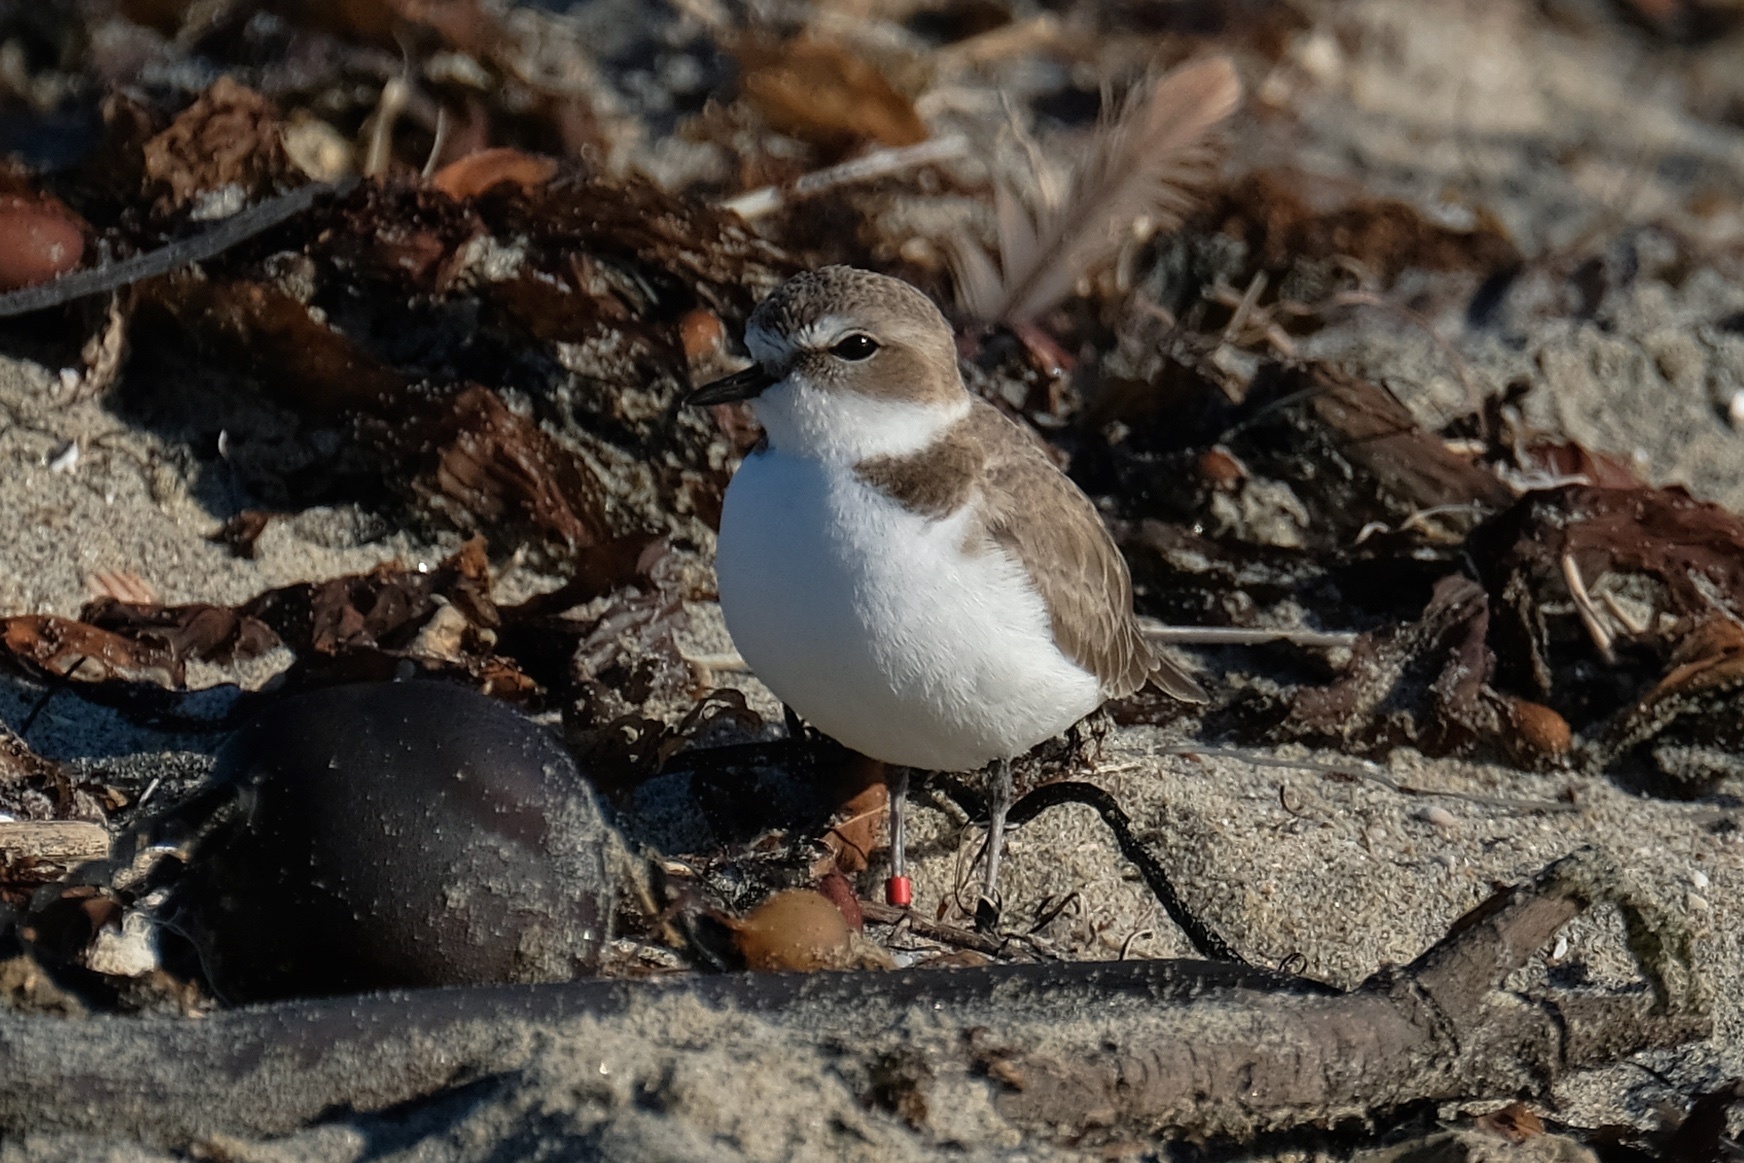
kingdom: Animalia
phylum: Chordata
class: Aves
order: Charadriiformes
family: Charadriidae
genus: Anarhynchus
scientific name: Anarhynchus
